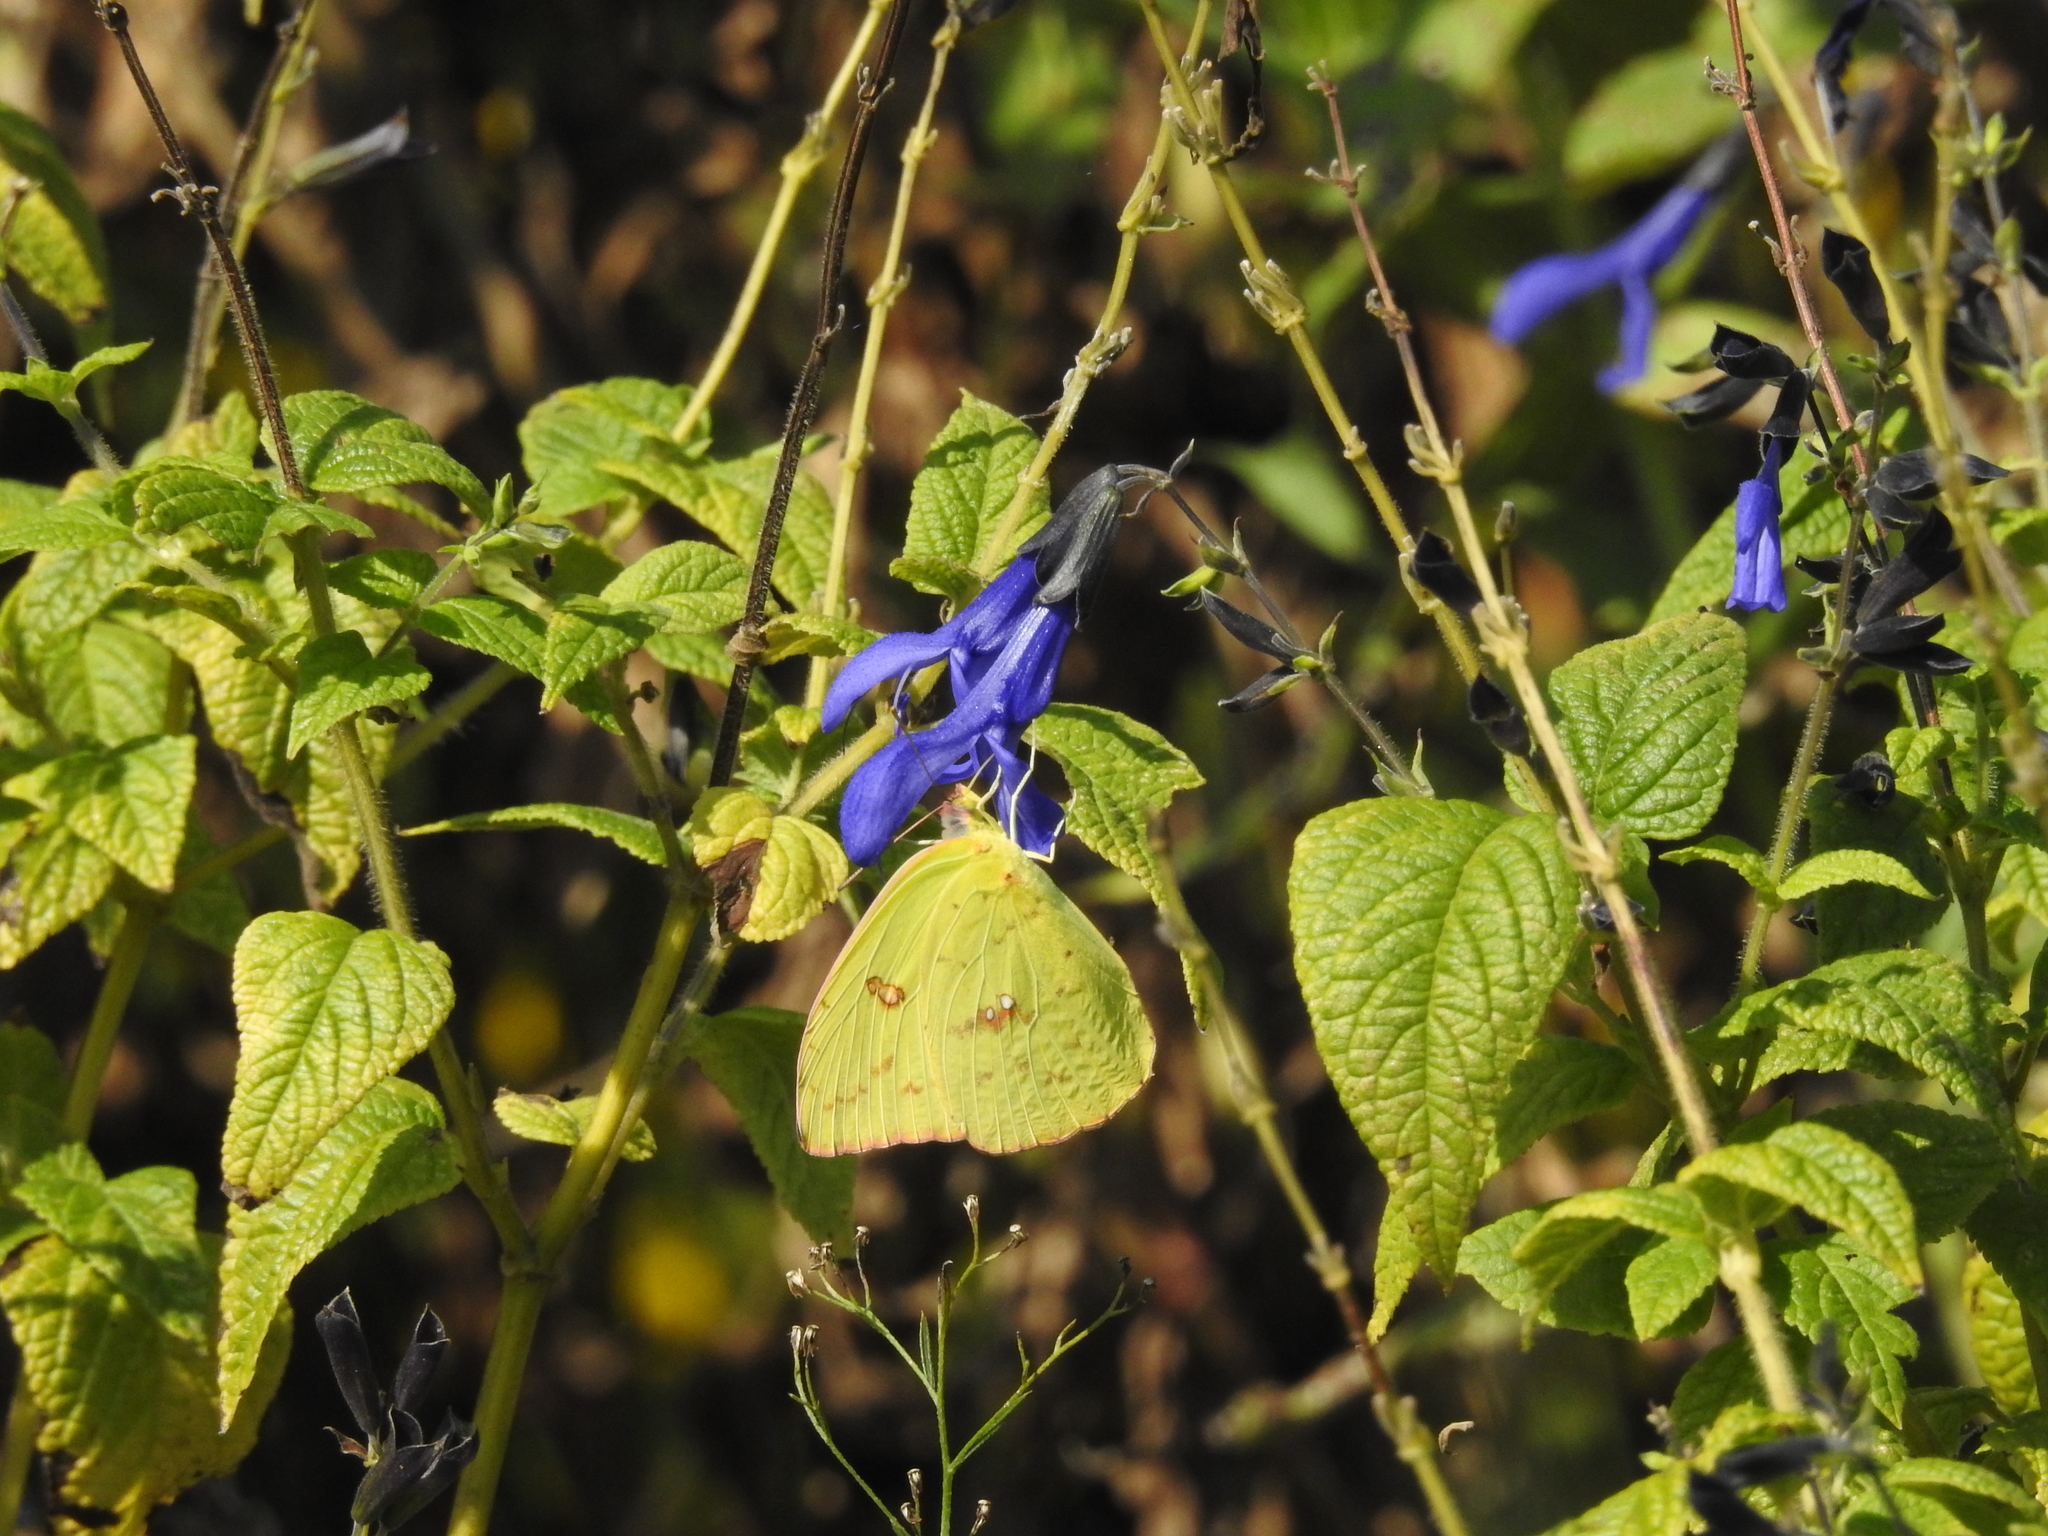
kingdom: Animalia
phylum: Arthropoda
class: Insecta
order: Lepidoptera
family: Pieridae
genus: Phoebis
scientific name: Phoebis sennae
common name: Cloudless sulphur
